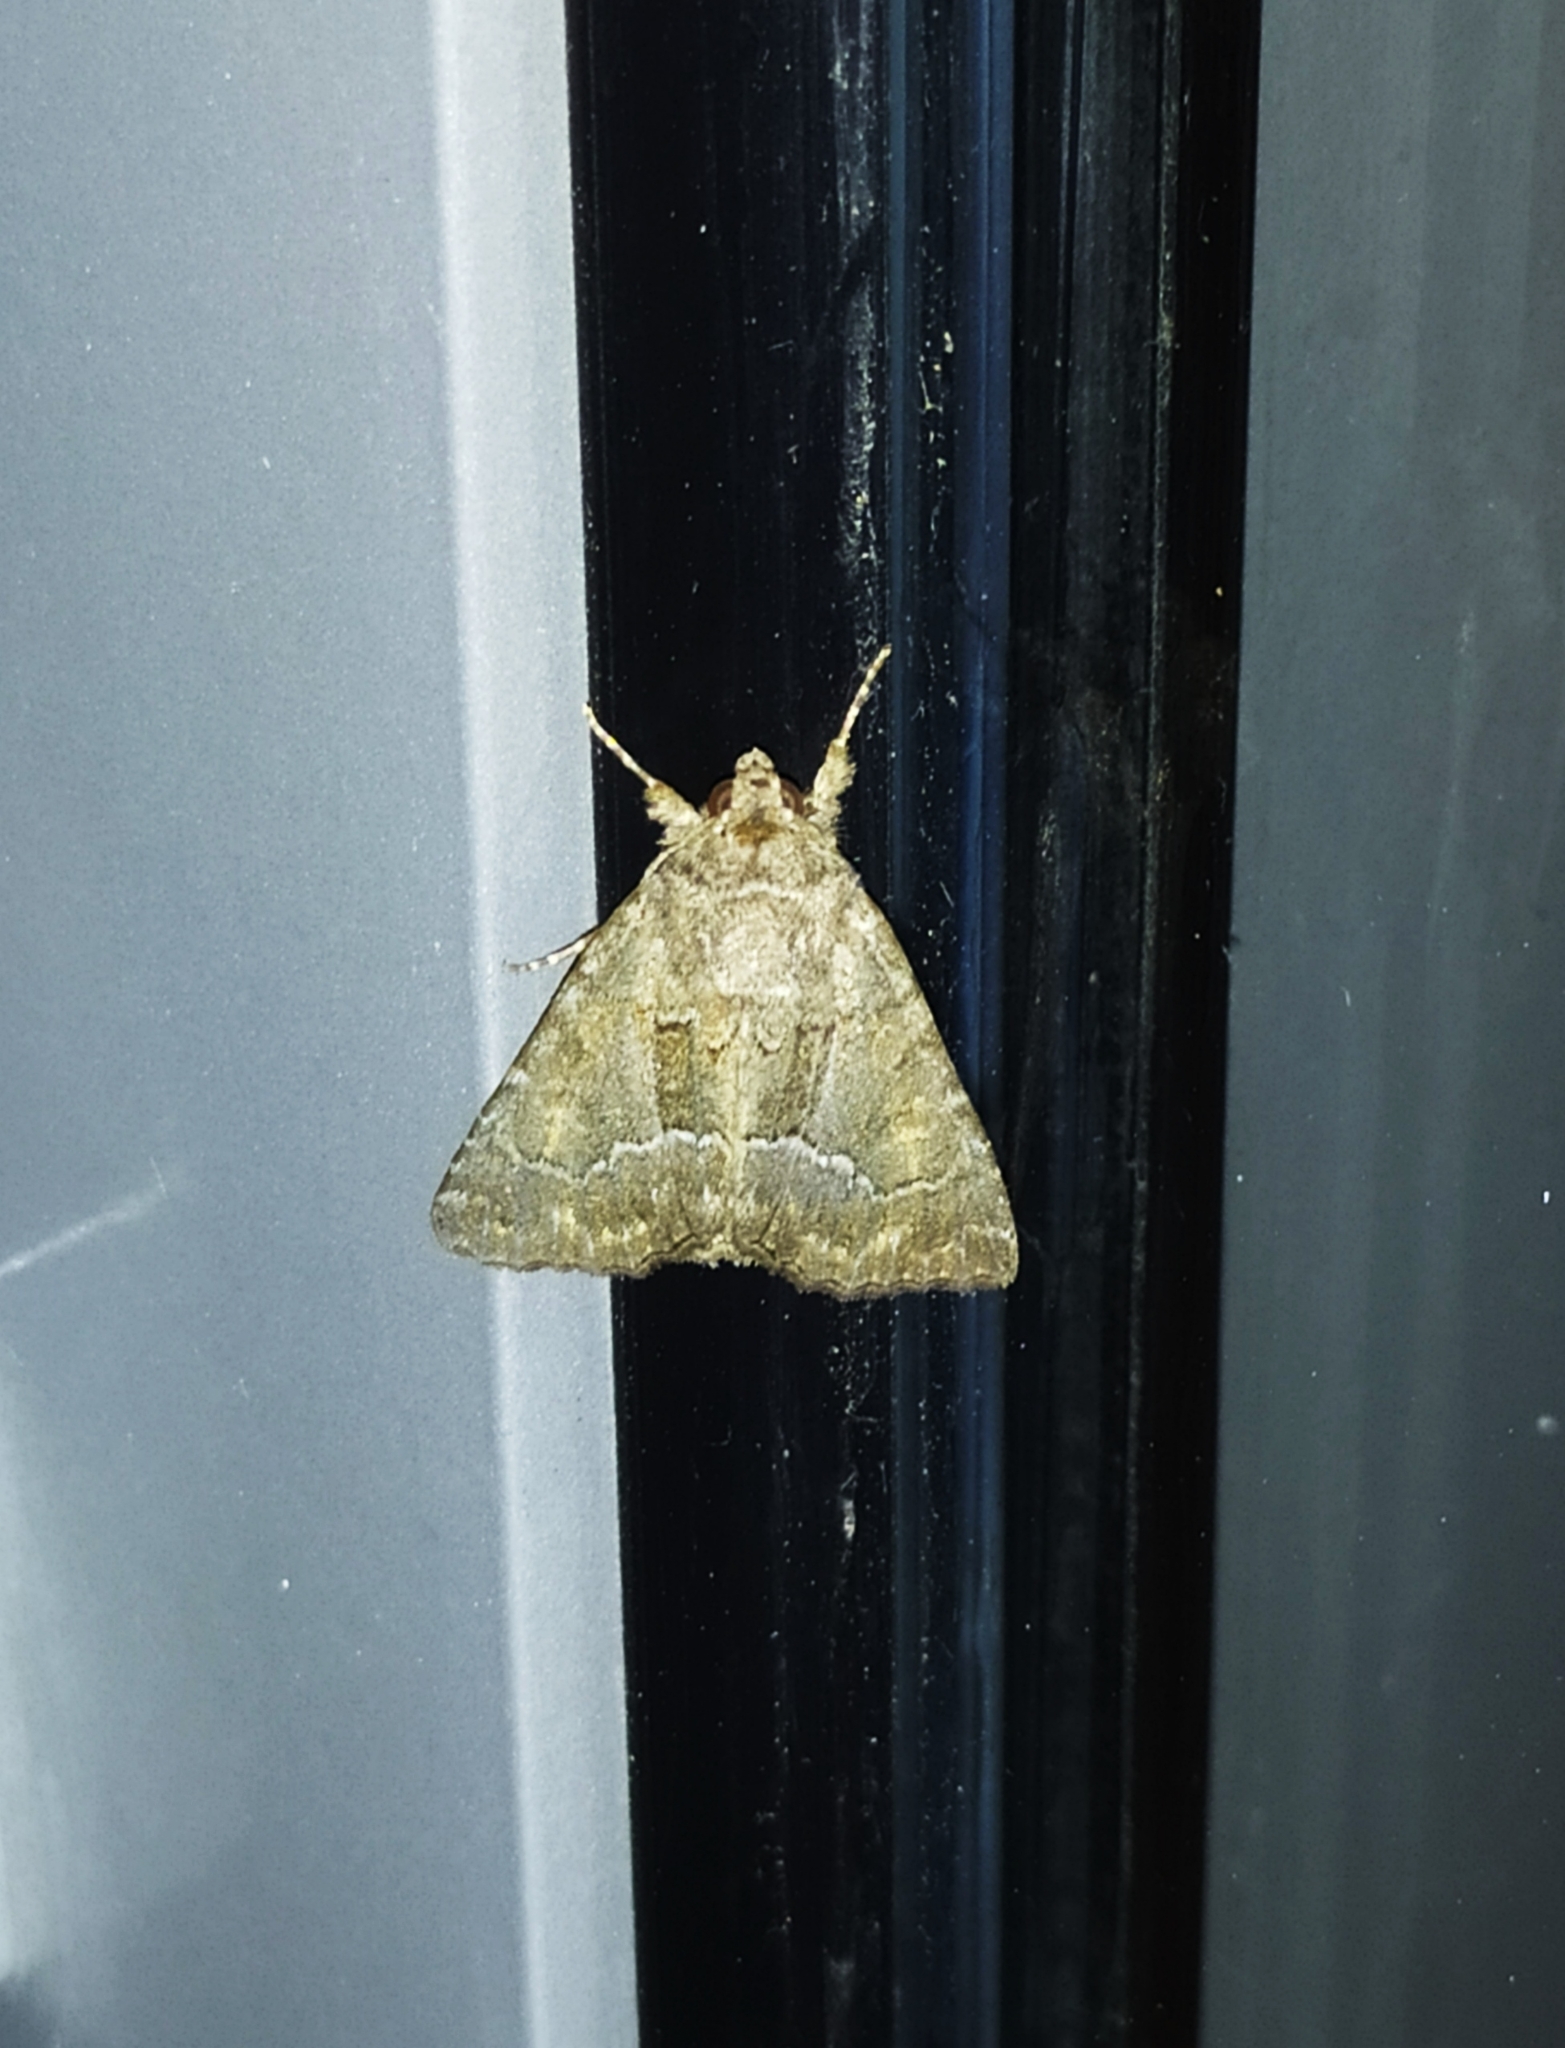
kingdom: Animalia
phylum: Arthropoda
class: Insecta
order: Lepidoptera
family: Noctuidae
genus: Thalpophila
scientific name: Thalpophila matura
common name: Straw underwing
